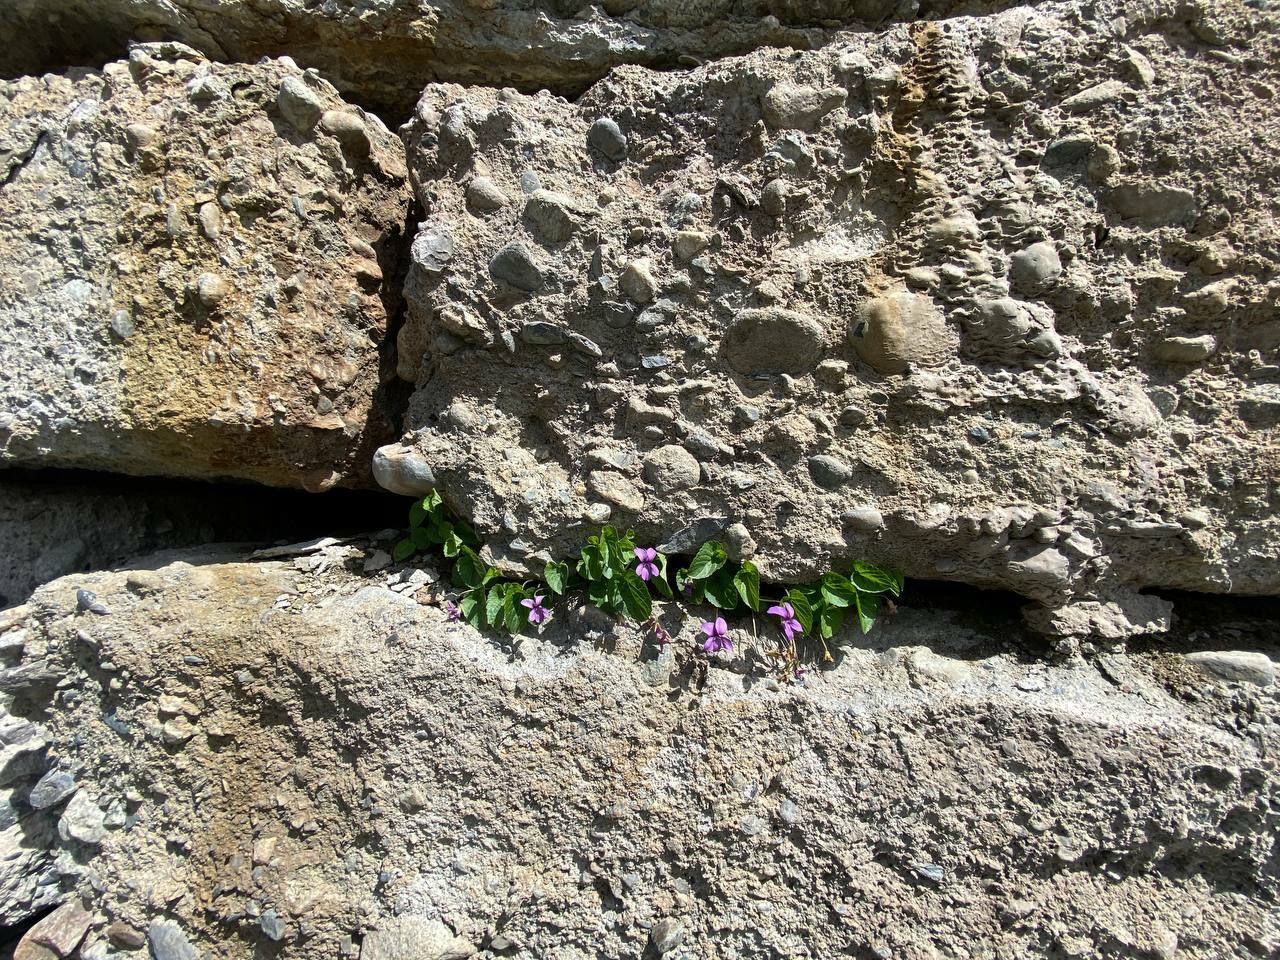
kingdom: Plantae
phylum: Tracheophyta
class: Magnoliopsida
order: Malpighiales
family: Violaceae
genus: Viola
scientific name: Viola somchetica
